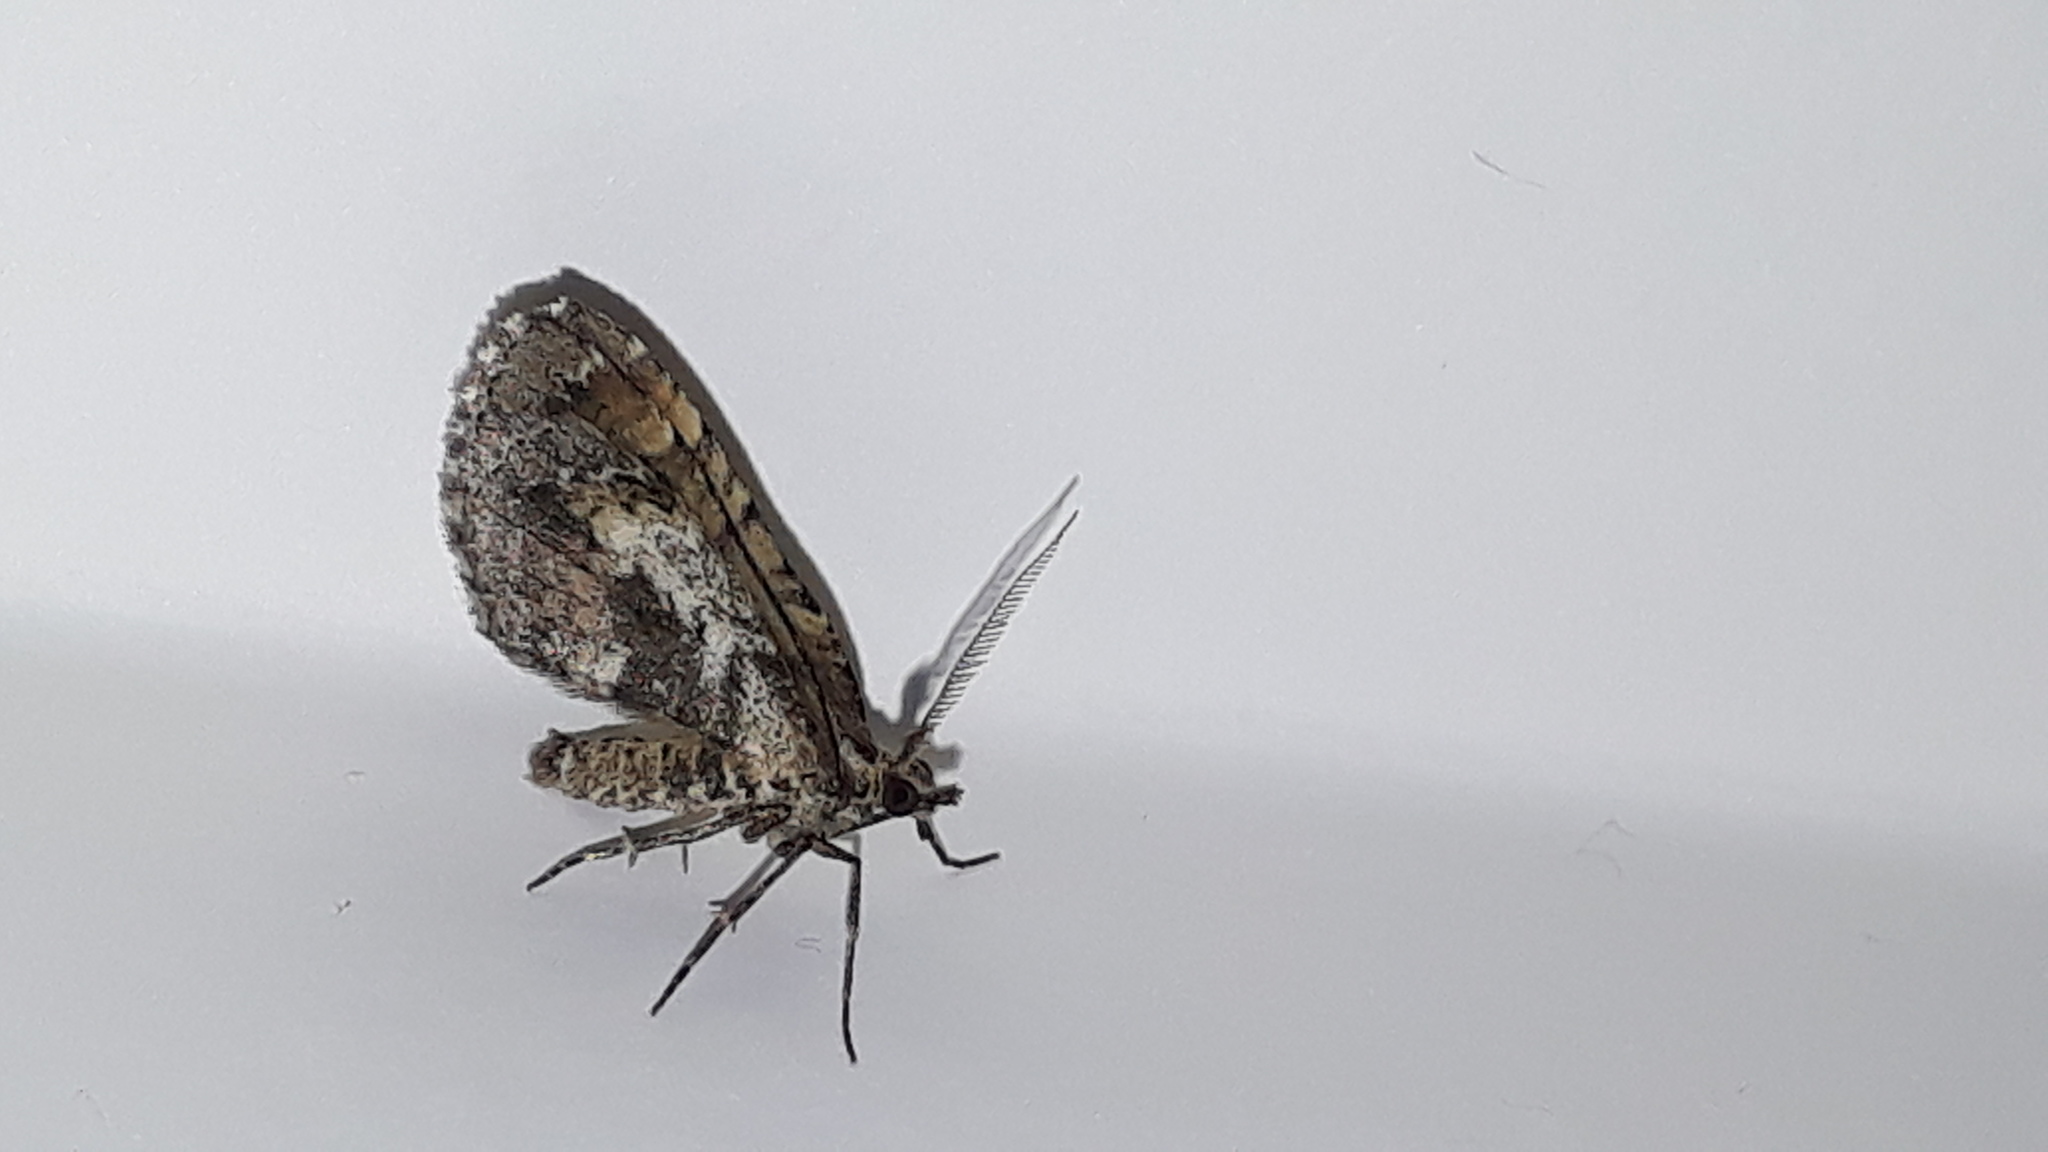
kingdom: Animalia
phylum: Arthropoda
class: Insecta
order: Lepidoptera
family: Geometridae
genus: Asaphodes
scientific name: Asaphodes aegrota
